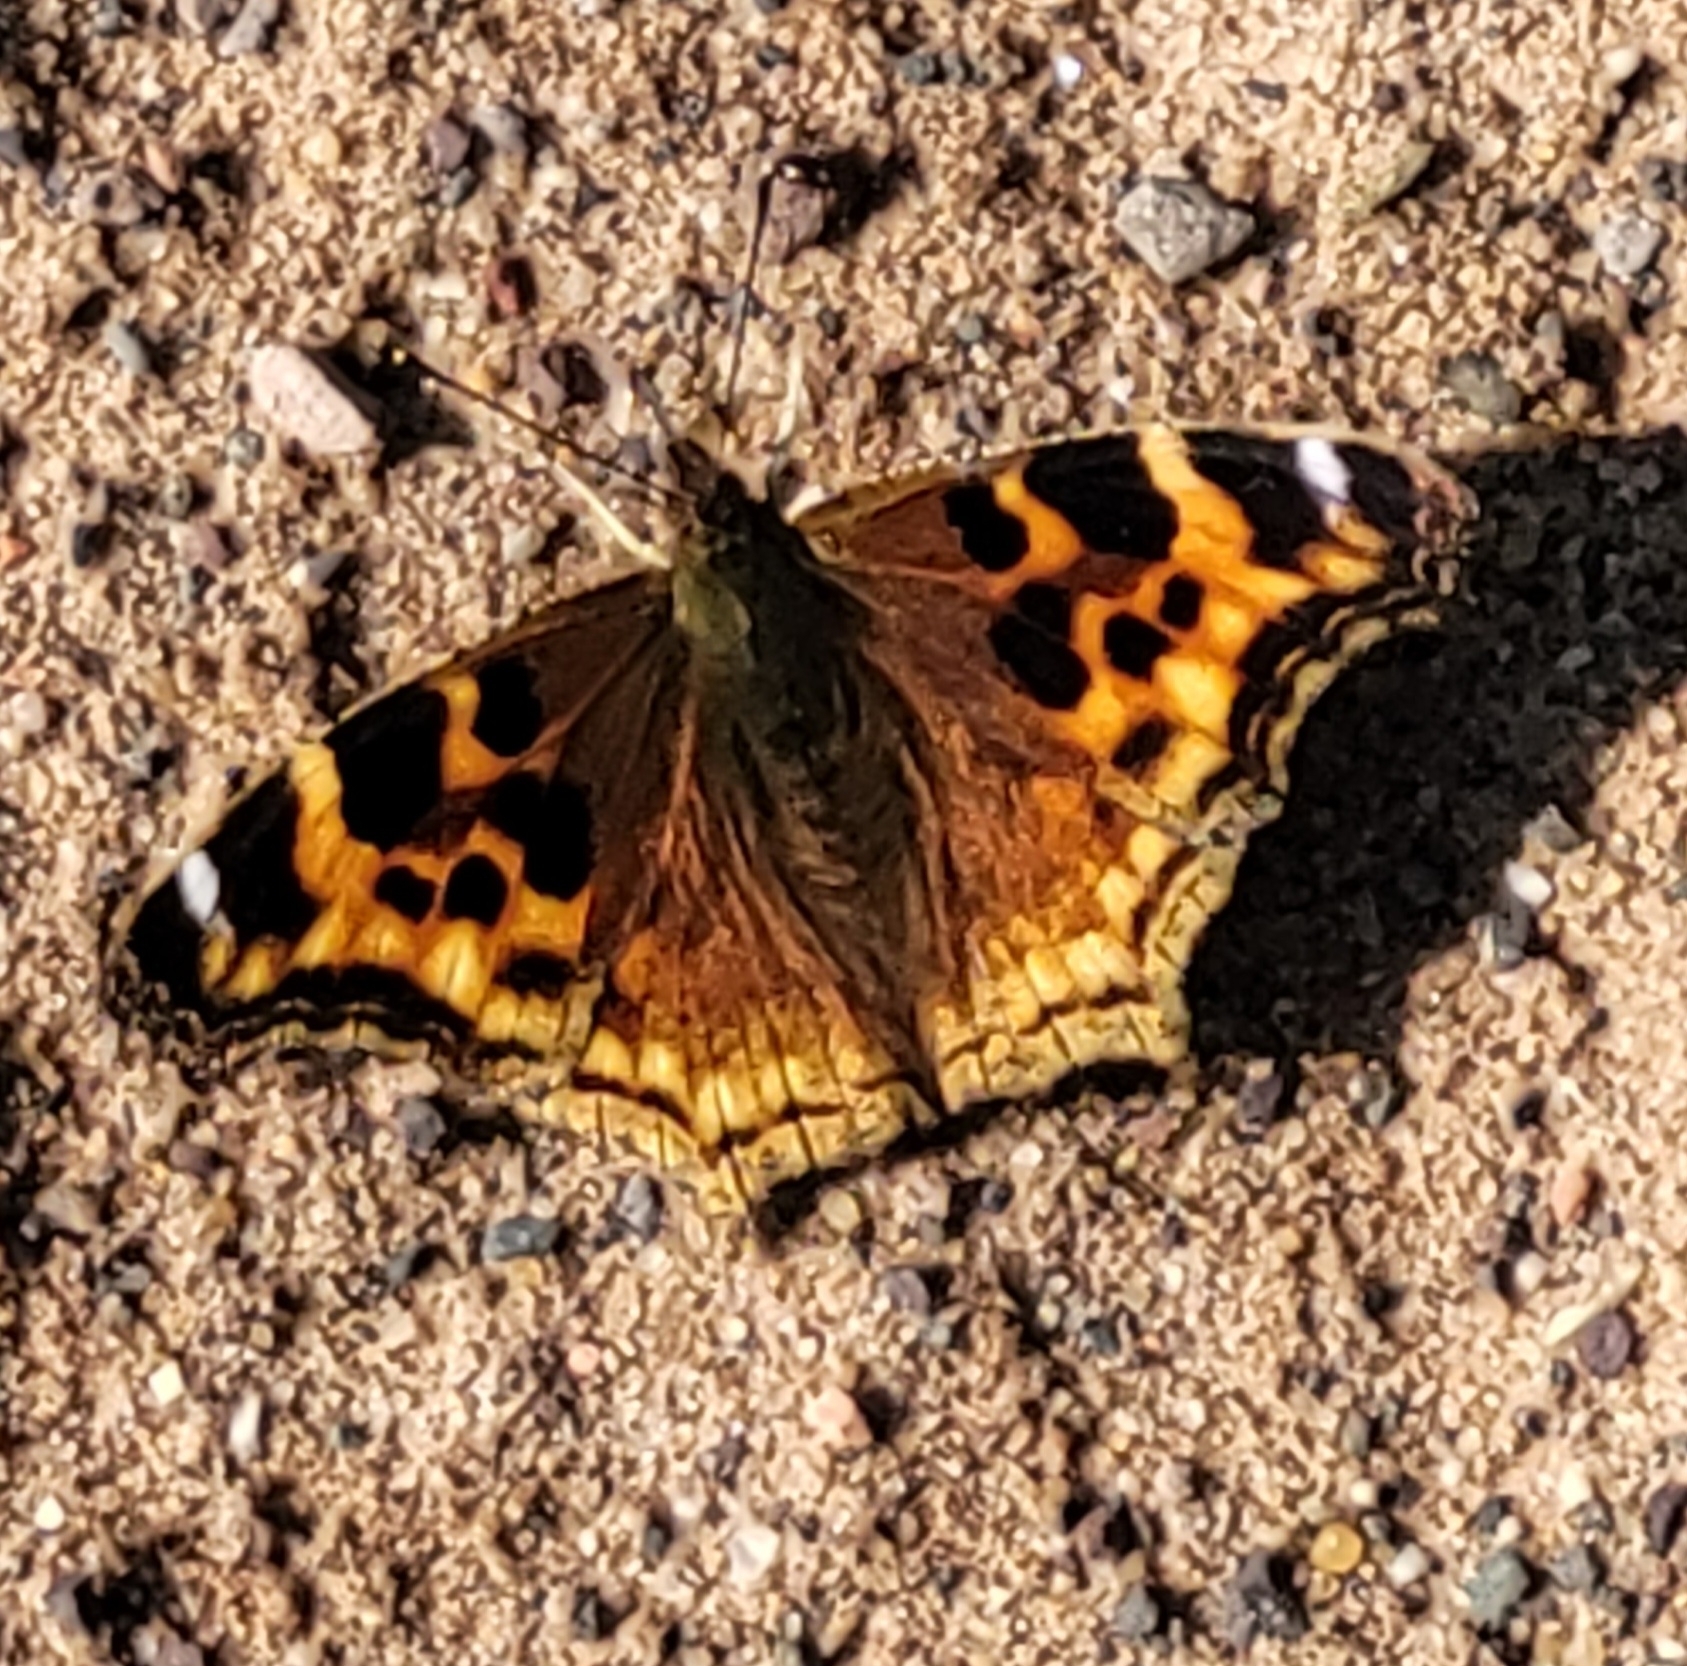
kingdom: Animalia
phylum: Arthropoda
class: Insecta
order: Lepidoptera
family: Nymphalidae
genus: Polygonia
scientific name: Polygonia vaualbum
